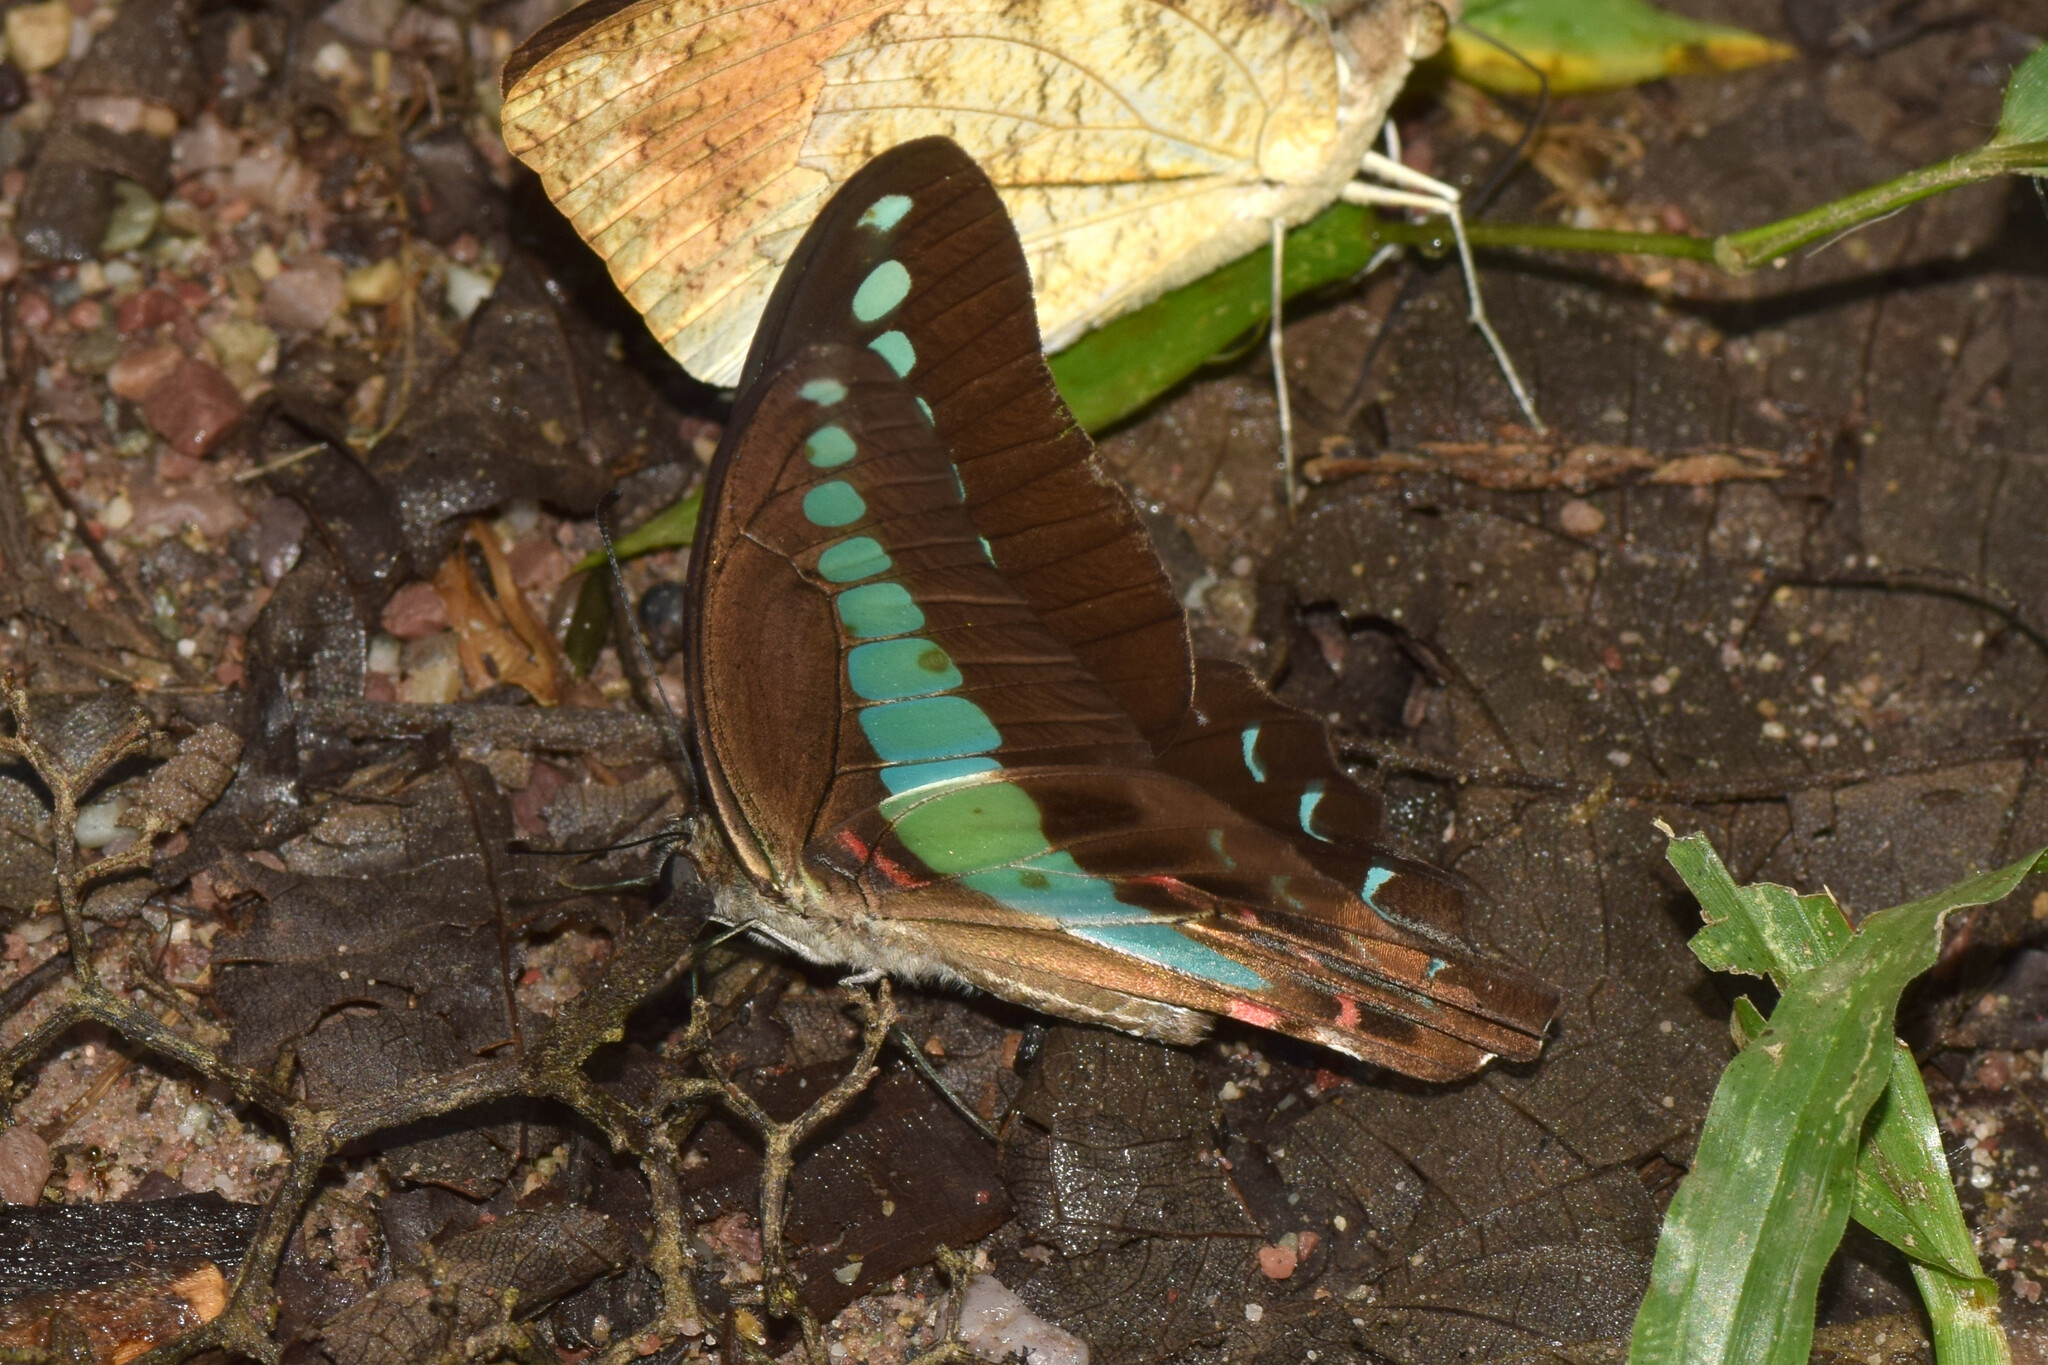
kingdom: Fungi
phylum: Ascomycota
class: Sordariomycetes
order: Microascales
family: Microascaceae
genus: Graphium
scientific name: Graphium sarpedon
